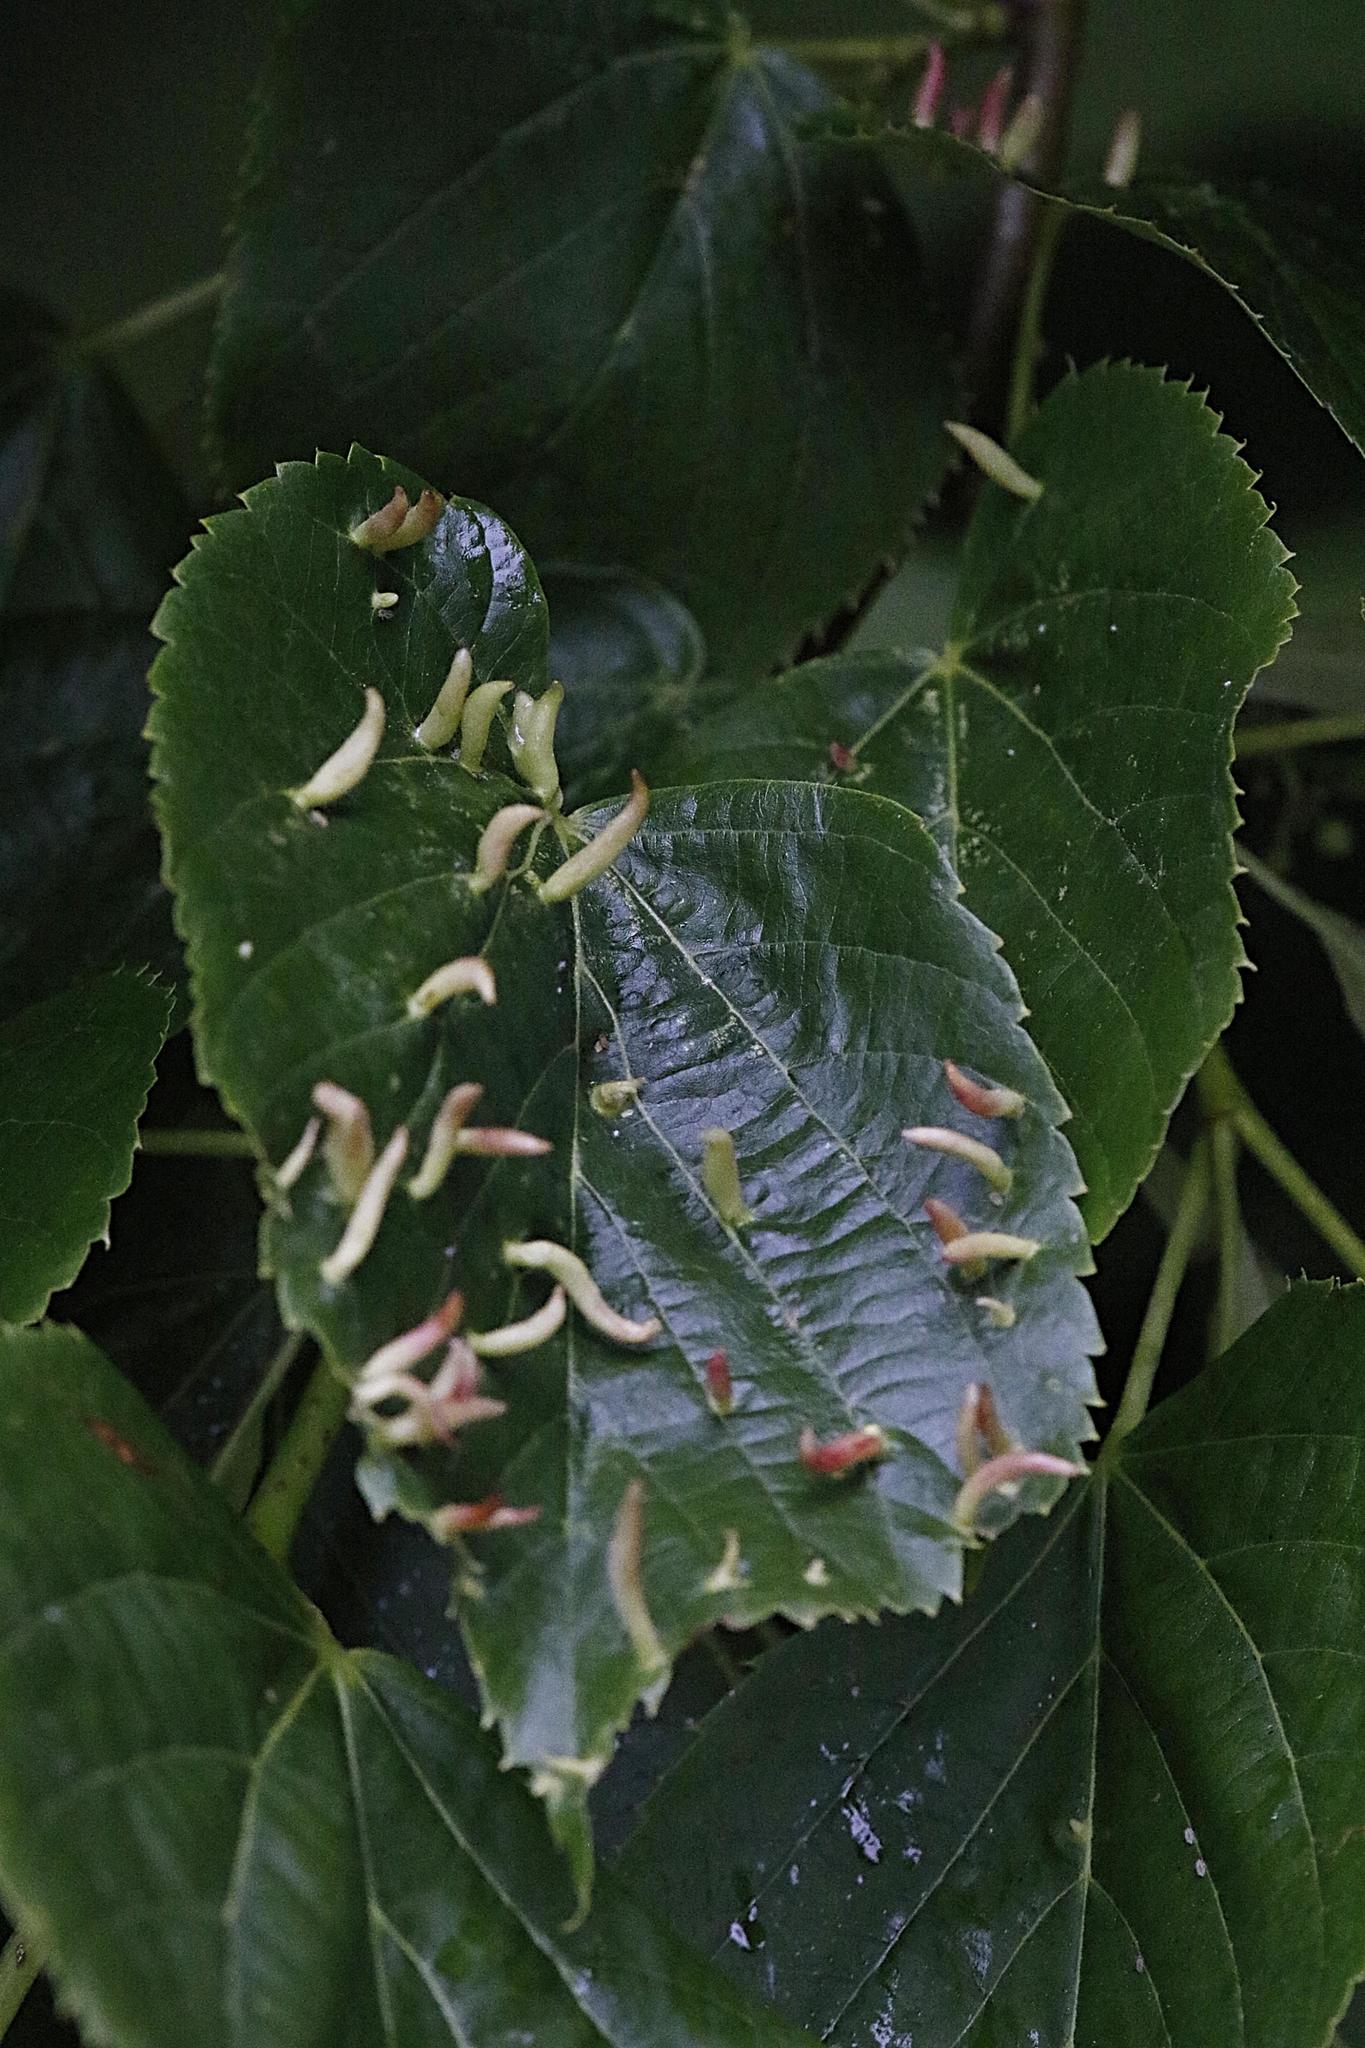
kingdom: Animalia
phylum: Arthropoda
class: Arachnida
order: Trombidiformes
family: Eriophyidae
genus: Eriophyes
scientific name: Eriophyes tiliae
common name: Red nail gall mite
